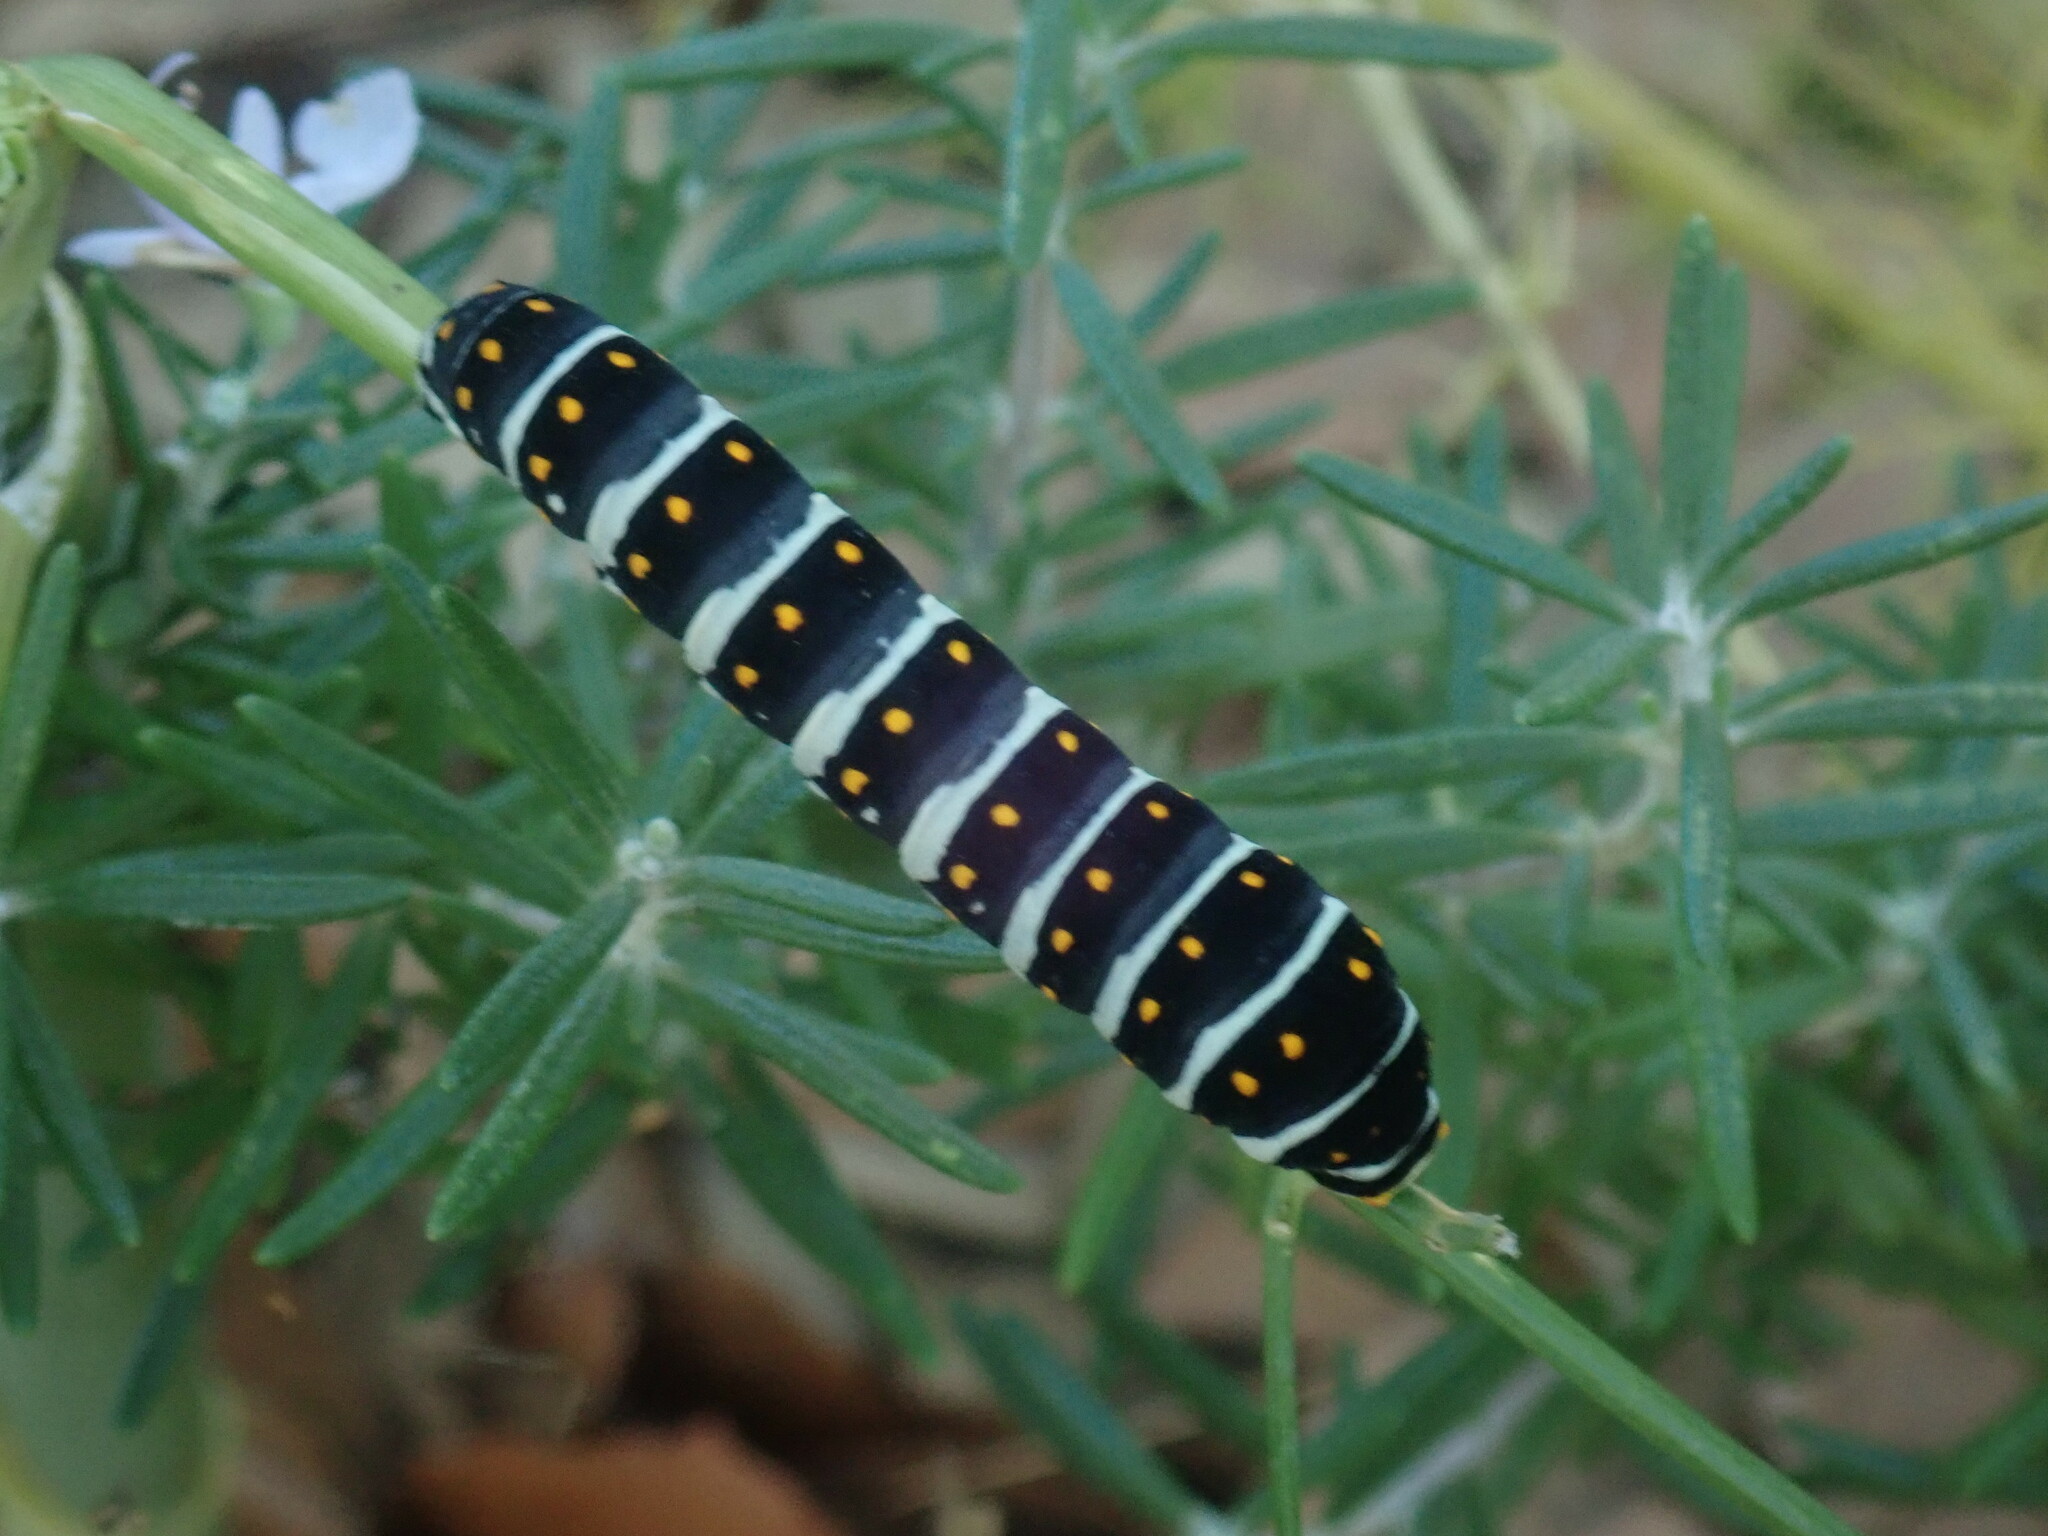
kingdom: Animalia
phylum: Arthropoda
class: Insecta
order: Lepidoptera
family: Papilionidae
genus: Papilio
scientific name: Papilio polyxenes
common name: Black swallowtail
